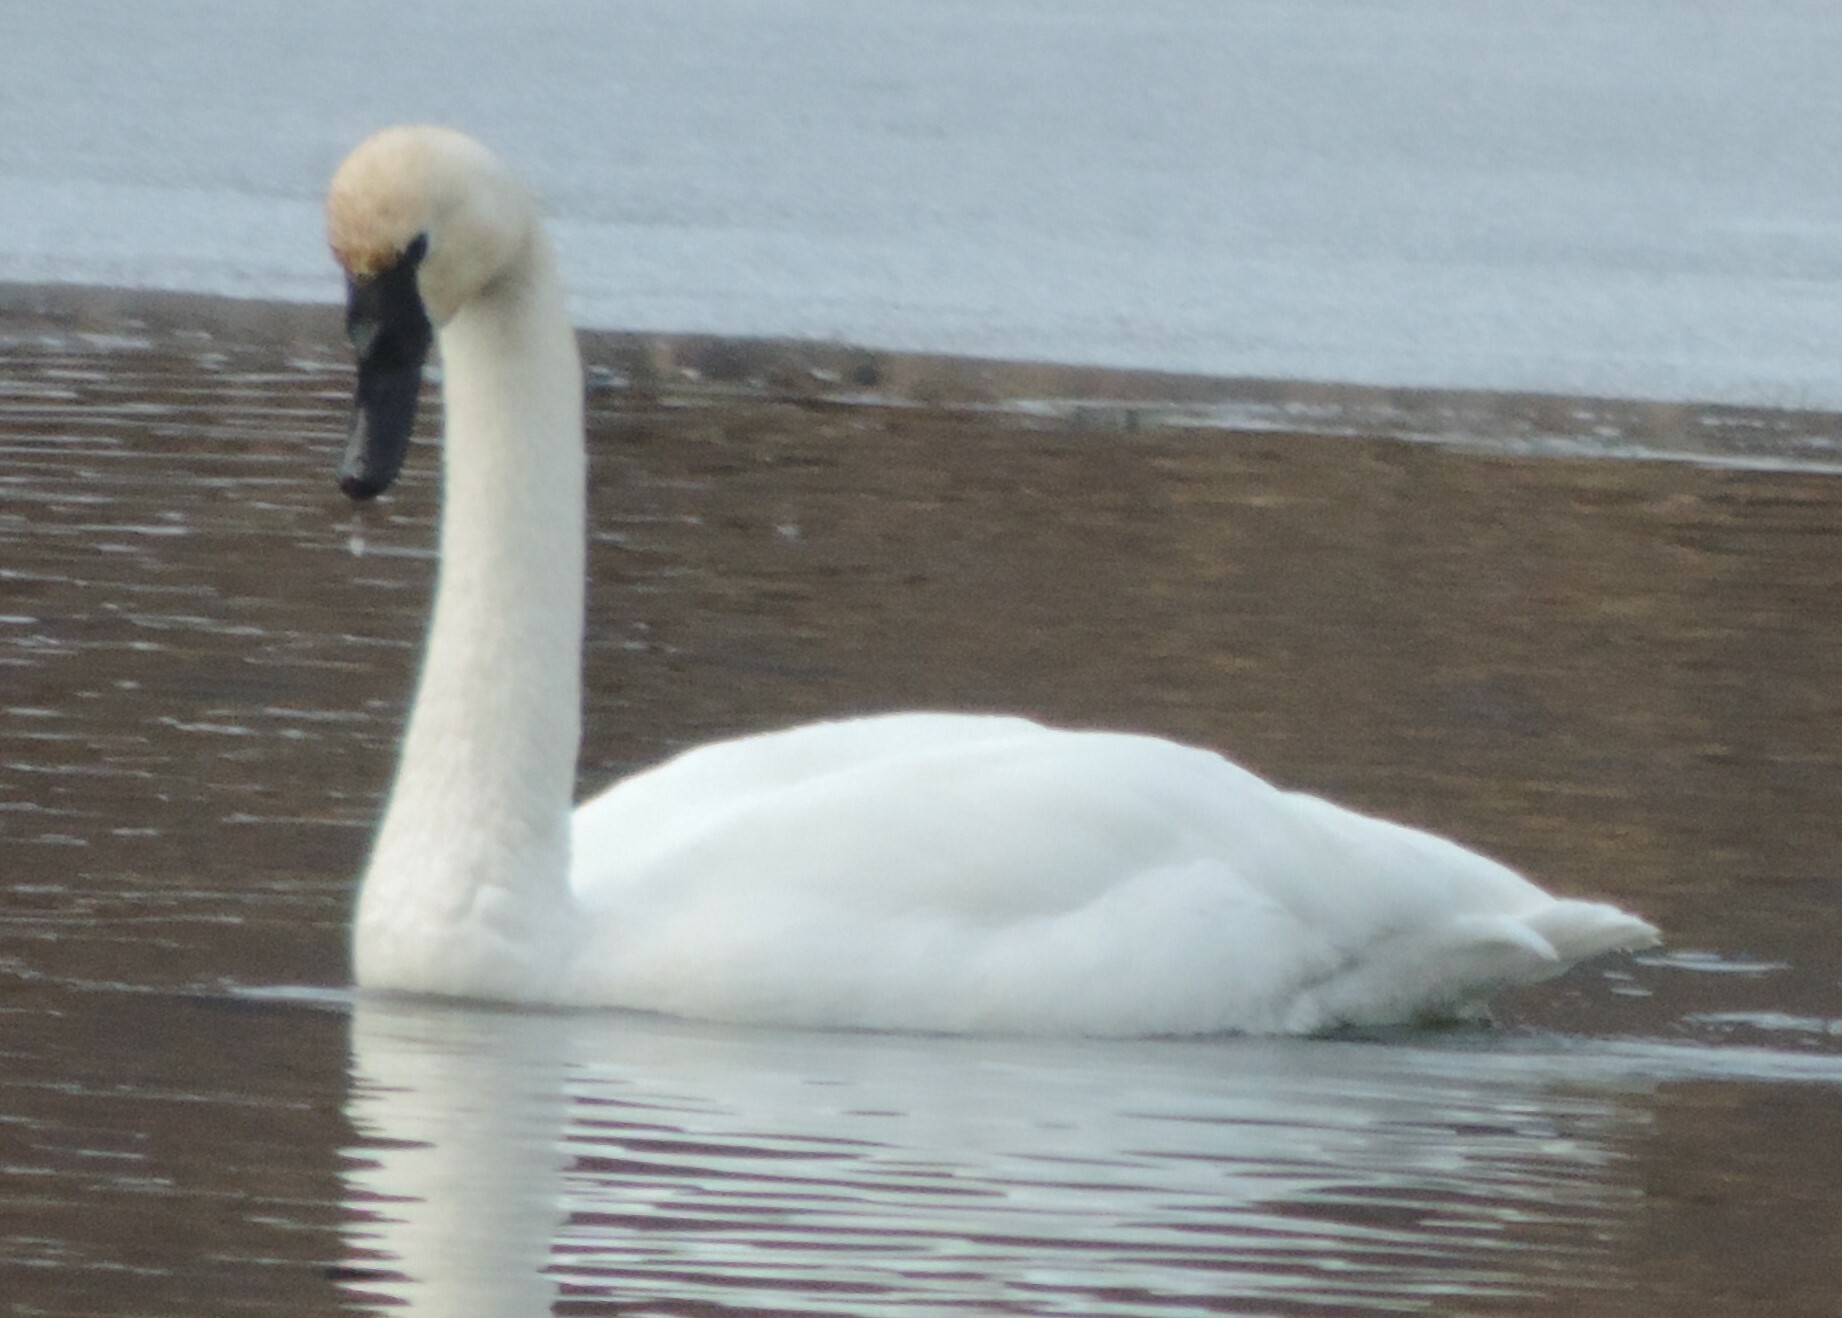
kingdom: Animalia
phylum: Chordata
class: Aves
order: Anseriformes
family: Anatidae
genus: Cygnus
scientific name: Cygnus buccinator
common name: Trumpeter swan
